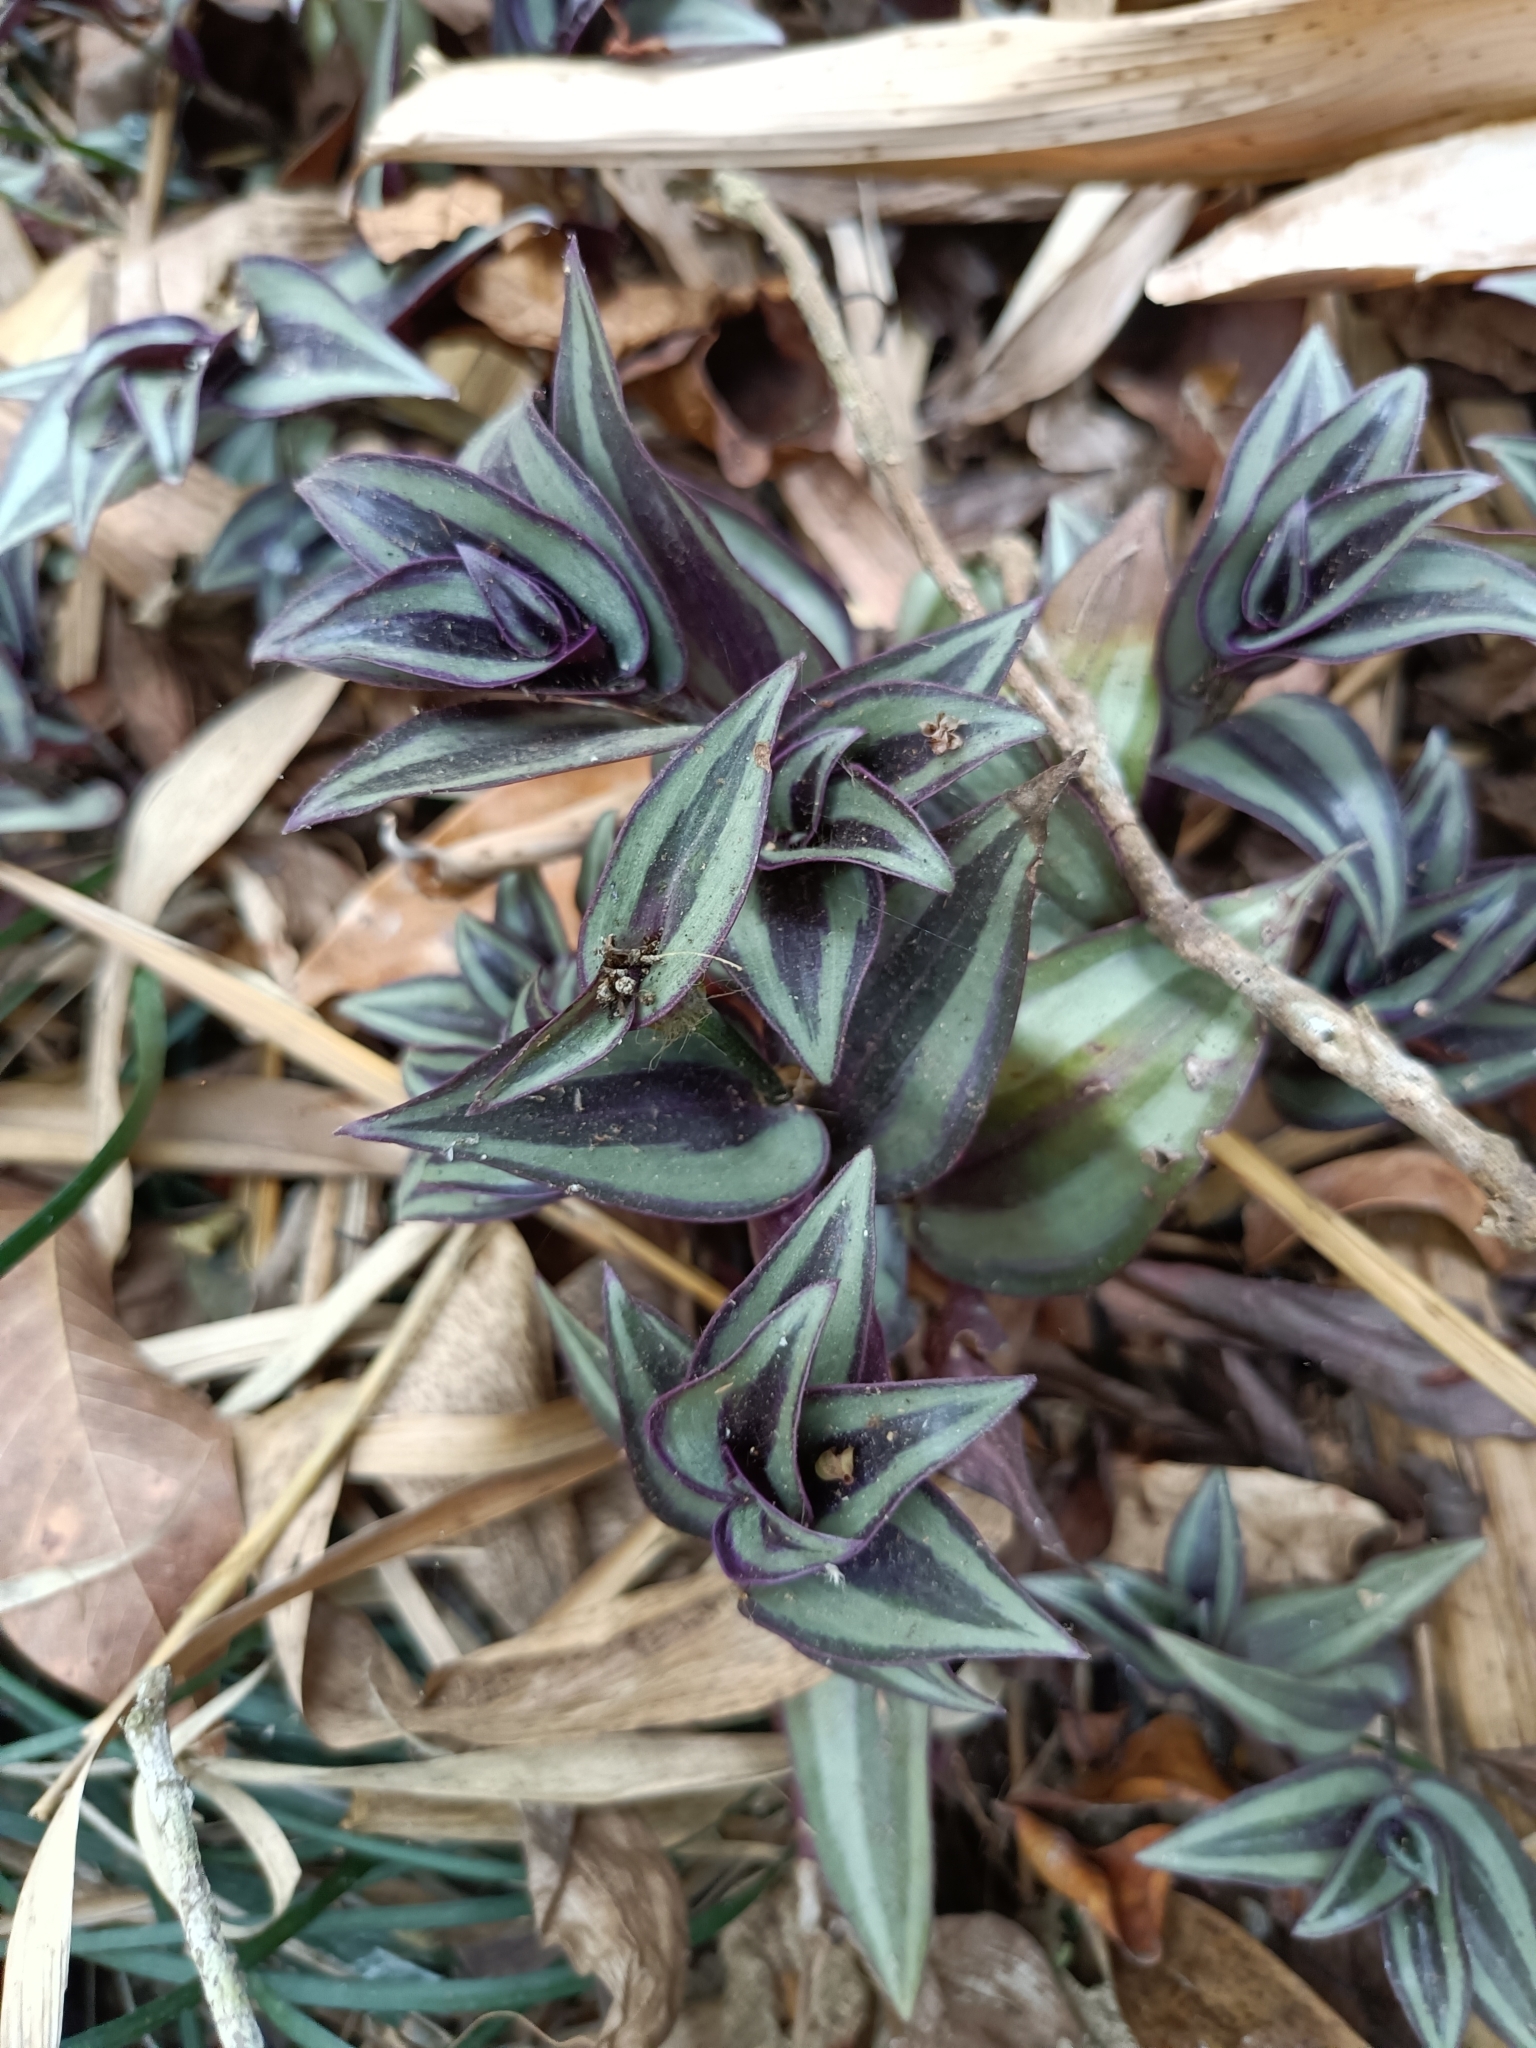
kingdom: Plantae
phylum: Tracheophyta
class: Liliopsida
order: Commelinales
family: Commelinaceae
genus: Tradescantia
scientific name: Tradescantia zebrina
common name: Inchplant
